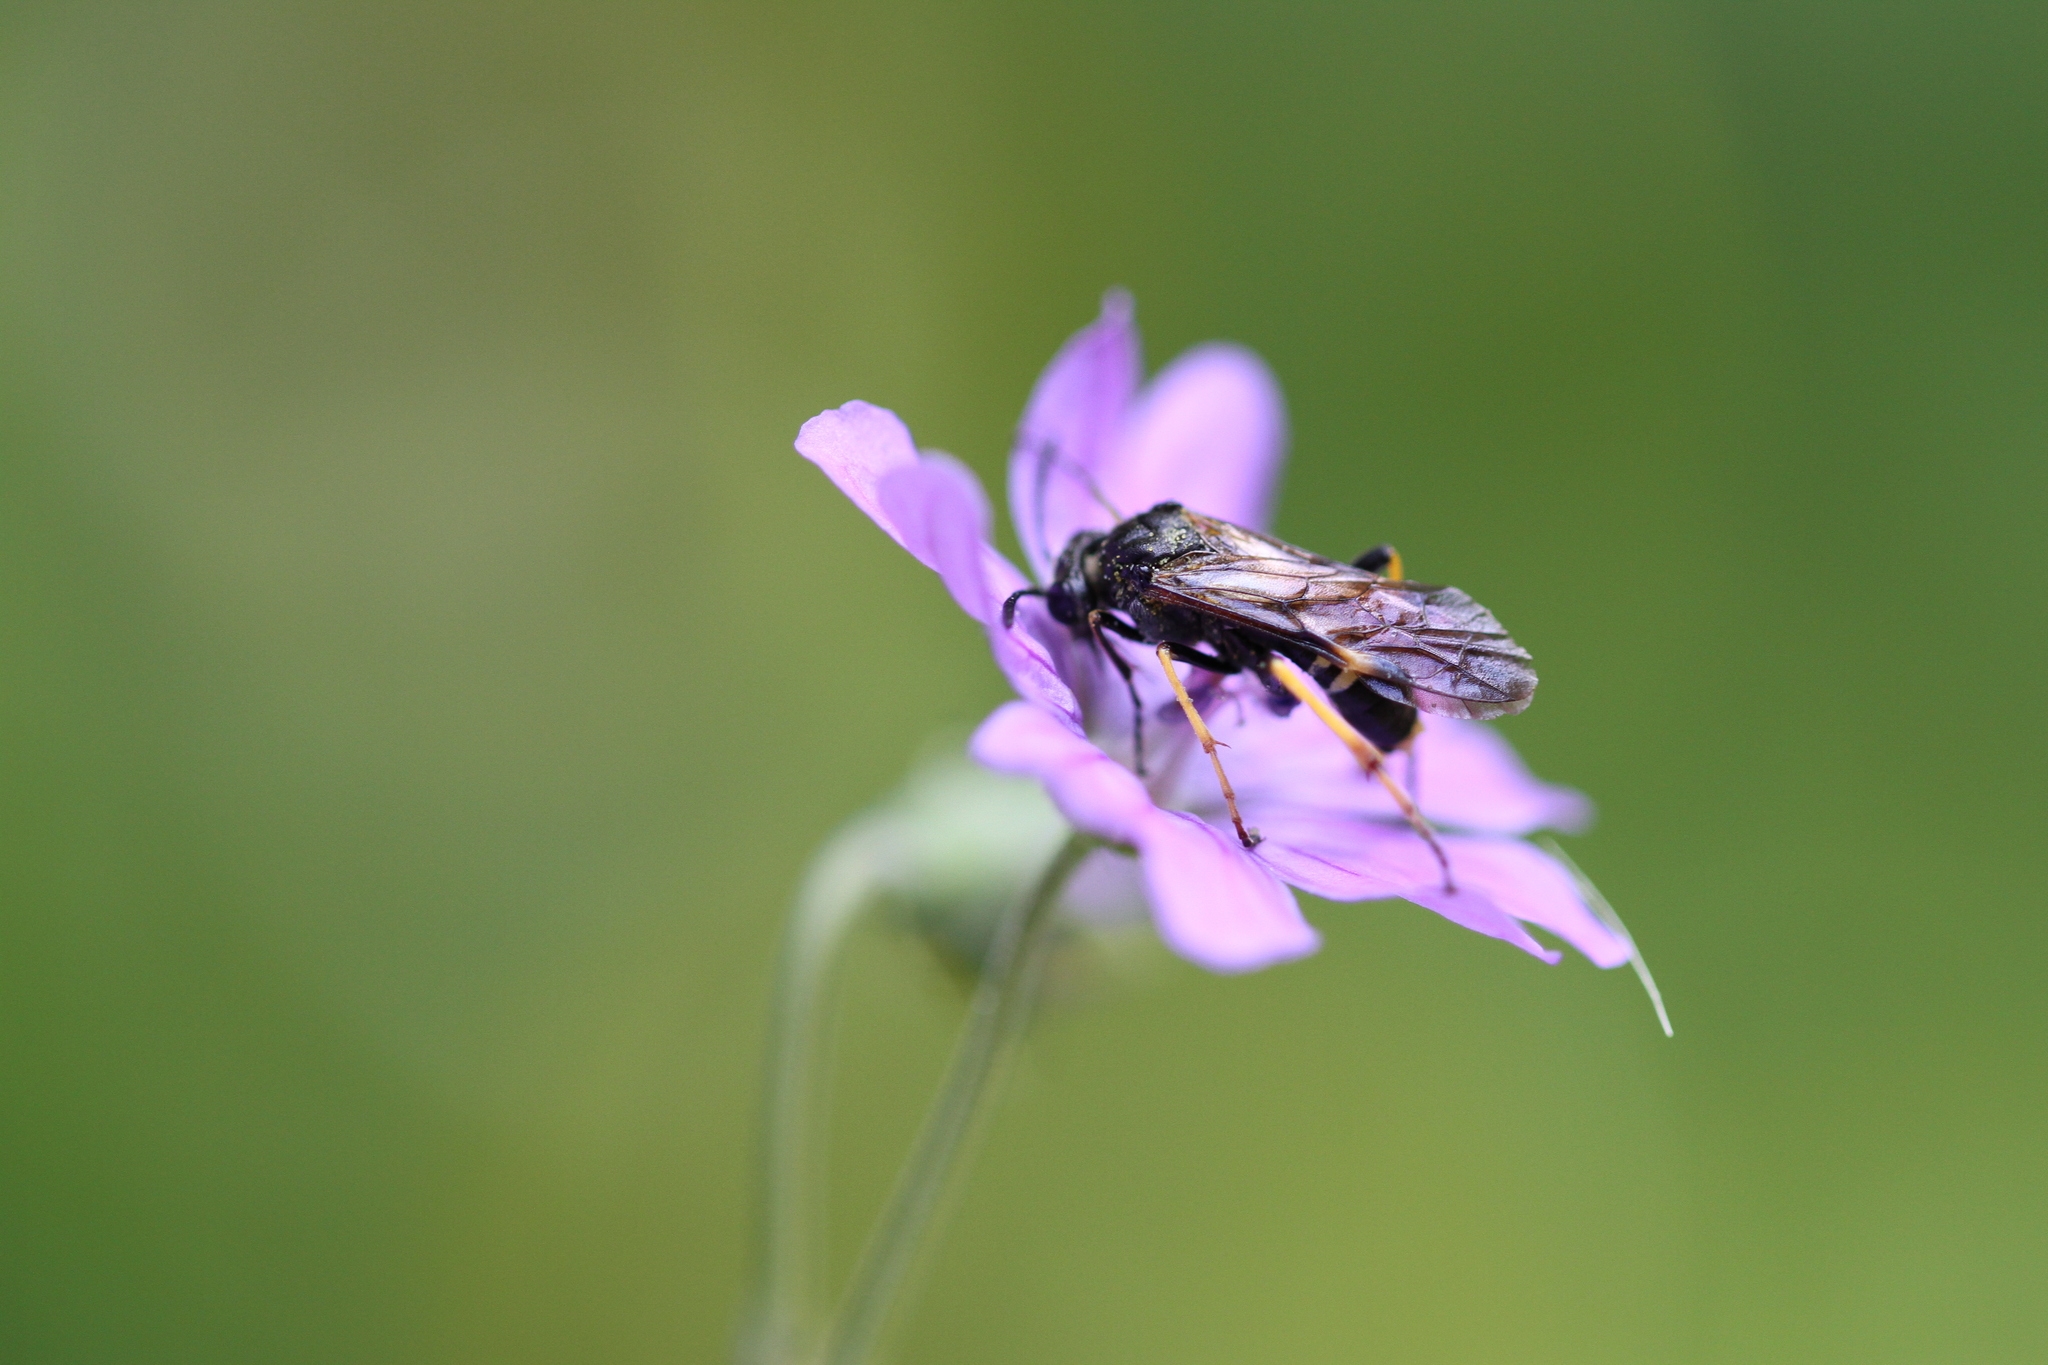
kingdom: Animalia
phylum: Arthropoda
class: Insecta
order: Hymenoptera
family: Tenthredinidae
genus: Tenthredo
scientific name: Tenthredo koehleri
